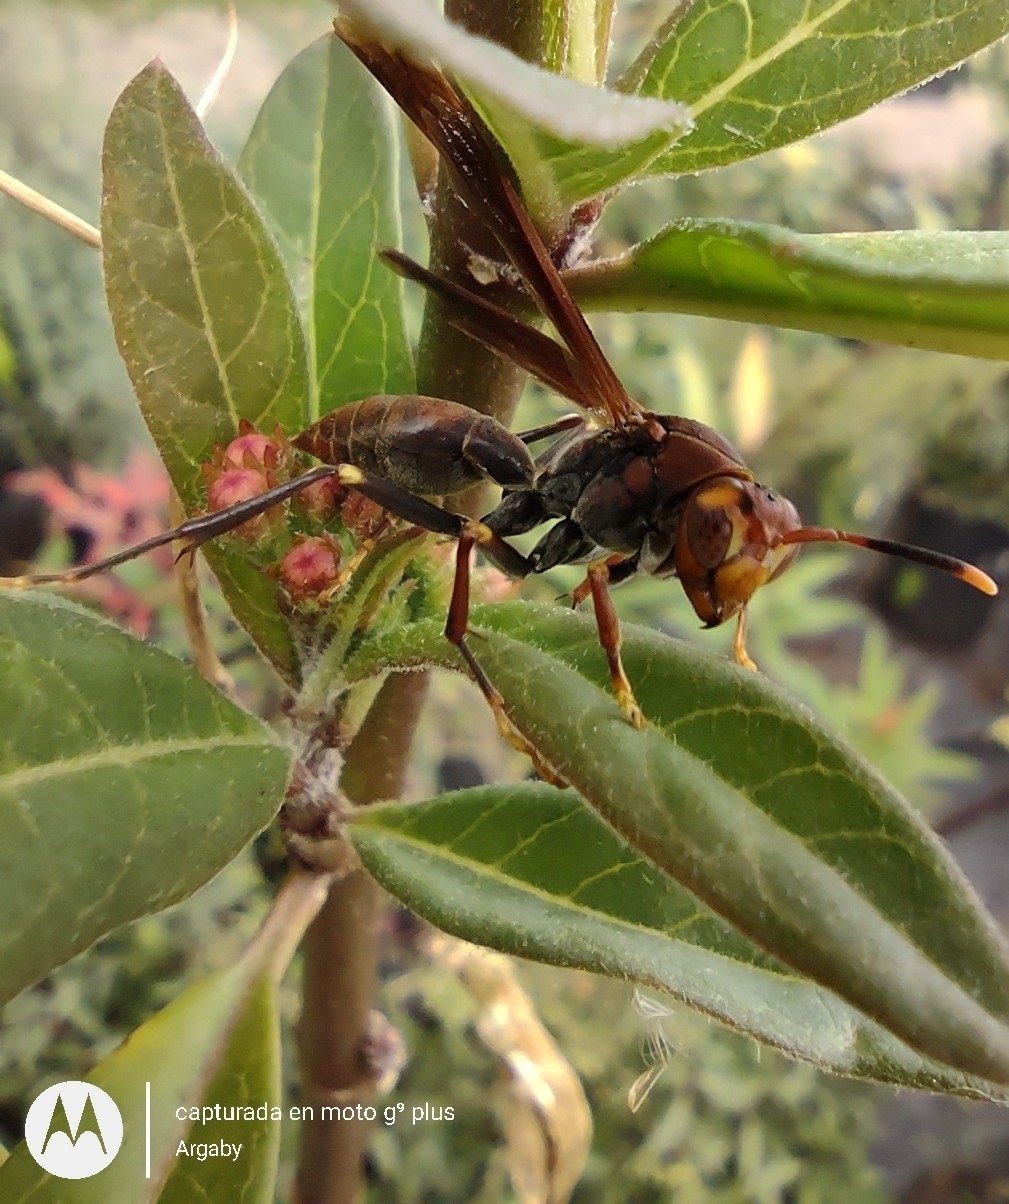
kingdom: Animalia
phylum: Arthropoda
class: Insecta
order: Hymenoptera
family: Pompilidae
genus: Aphanilopterus
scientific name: Aphanilopterus
